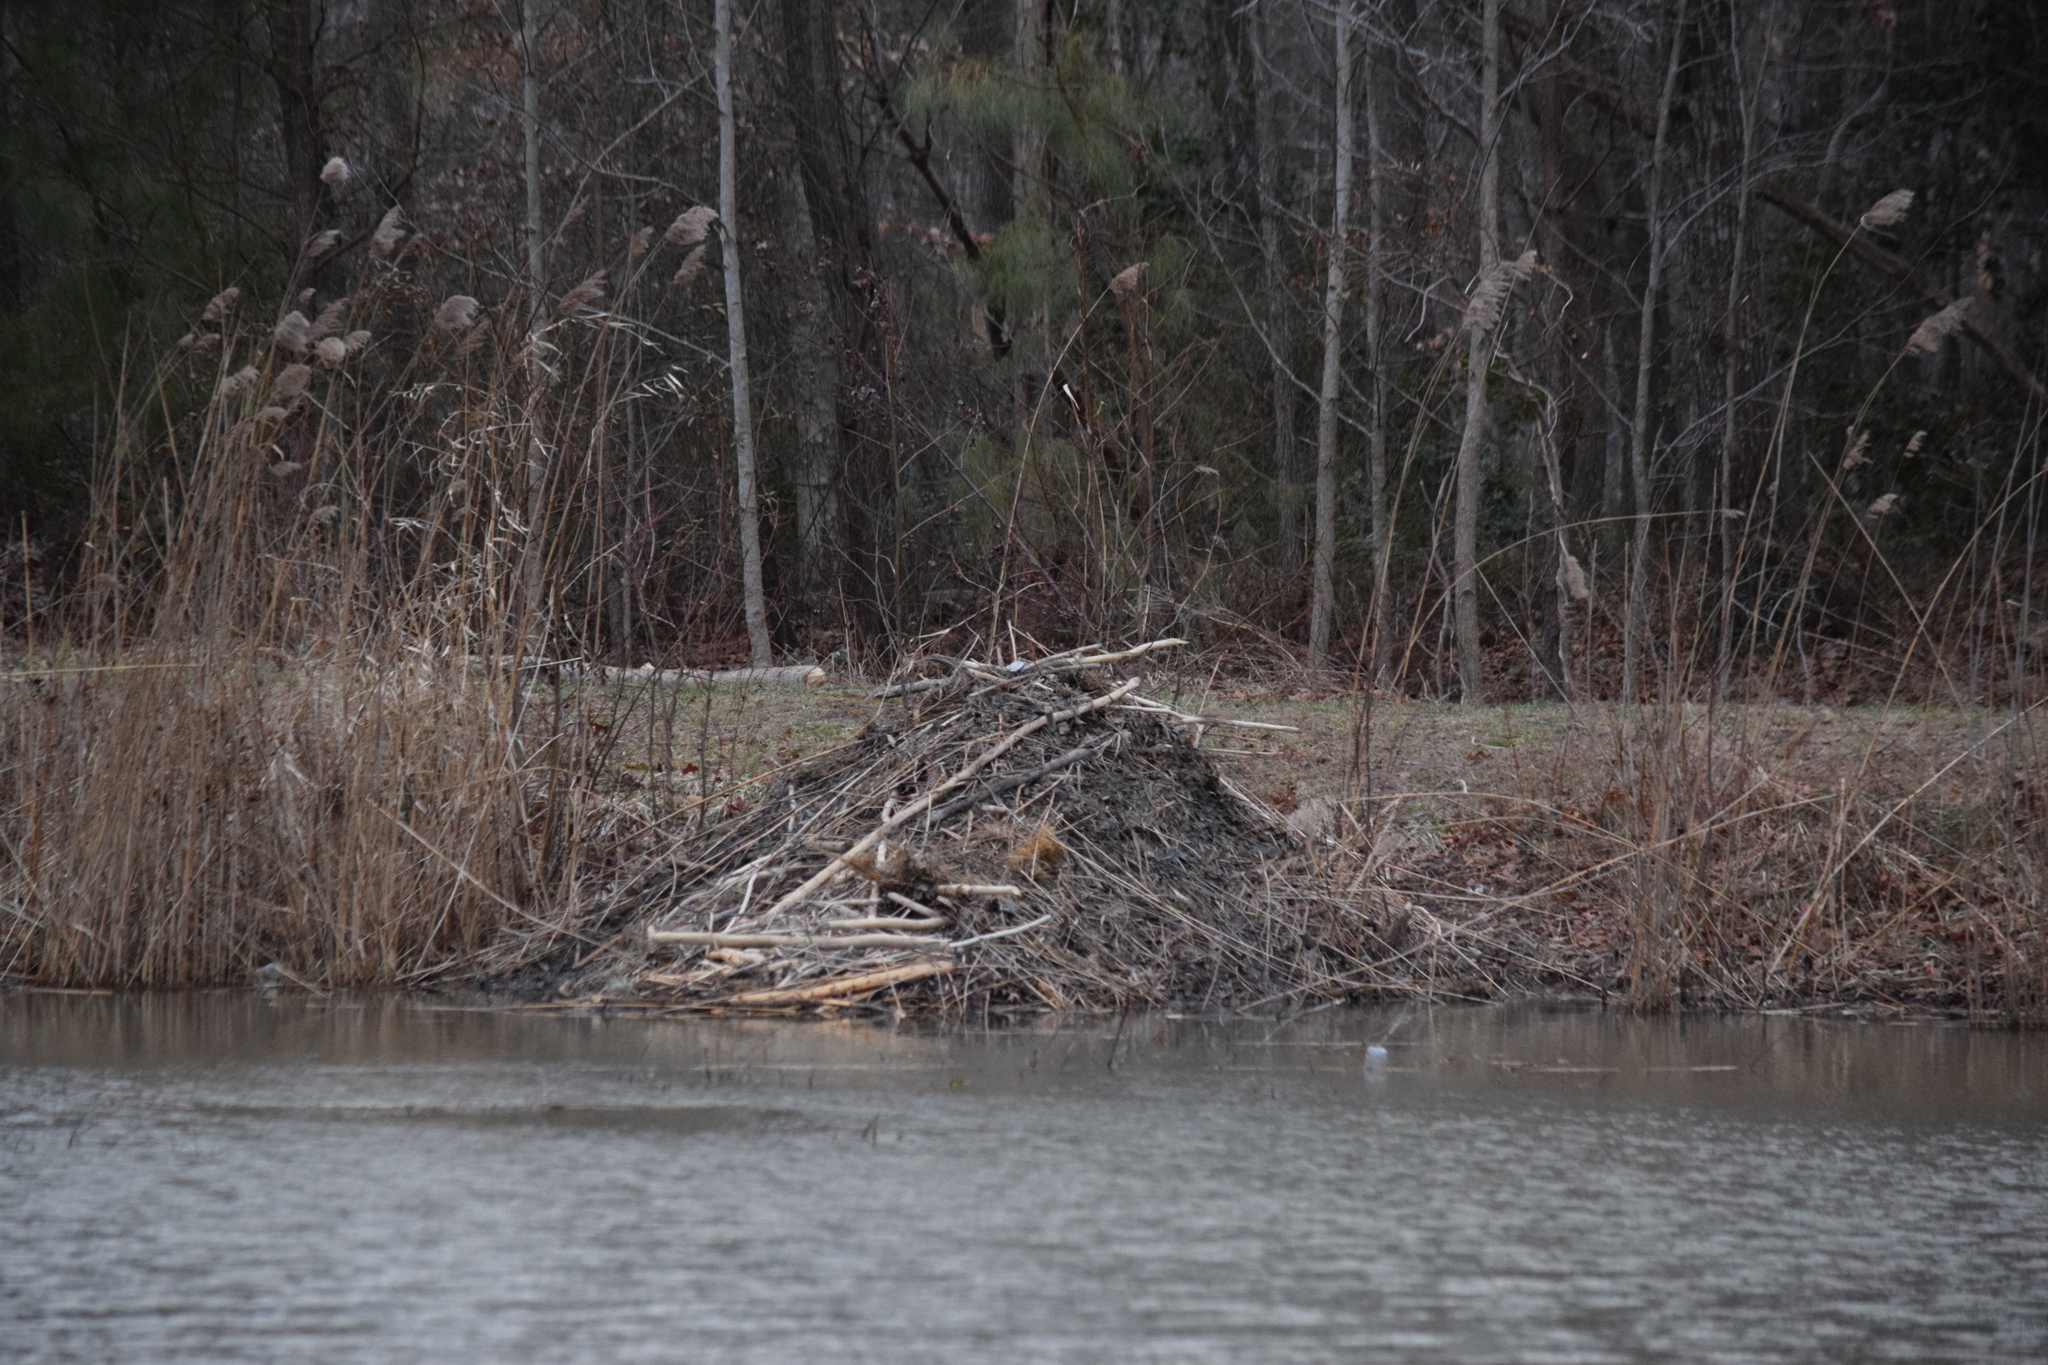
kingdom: Animalia
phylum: Chordata
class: Mammalia
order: Rodentia
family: Castoridae
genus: Castor
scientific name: Castor canadensis
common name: American beaver
